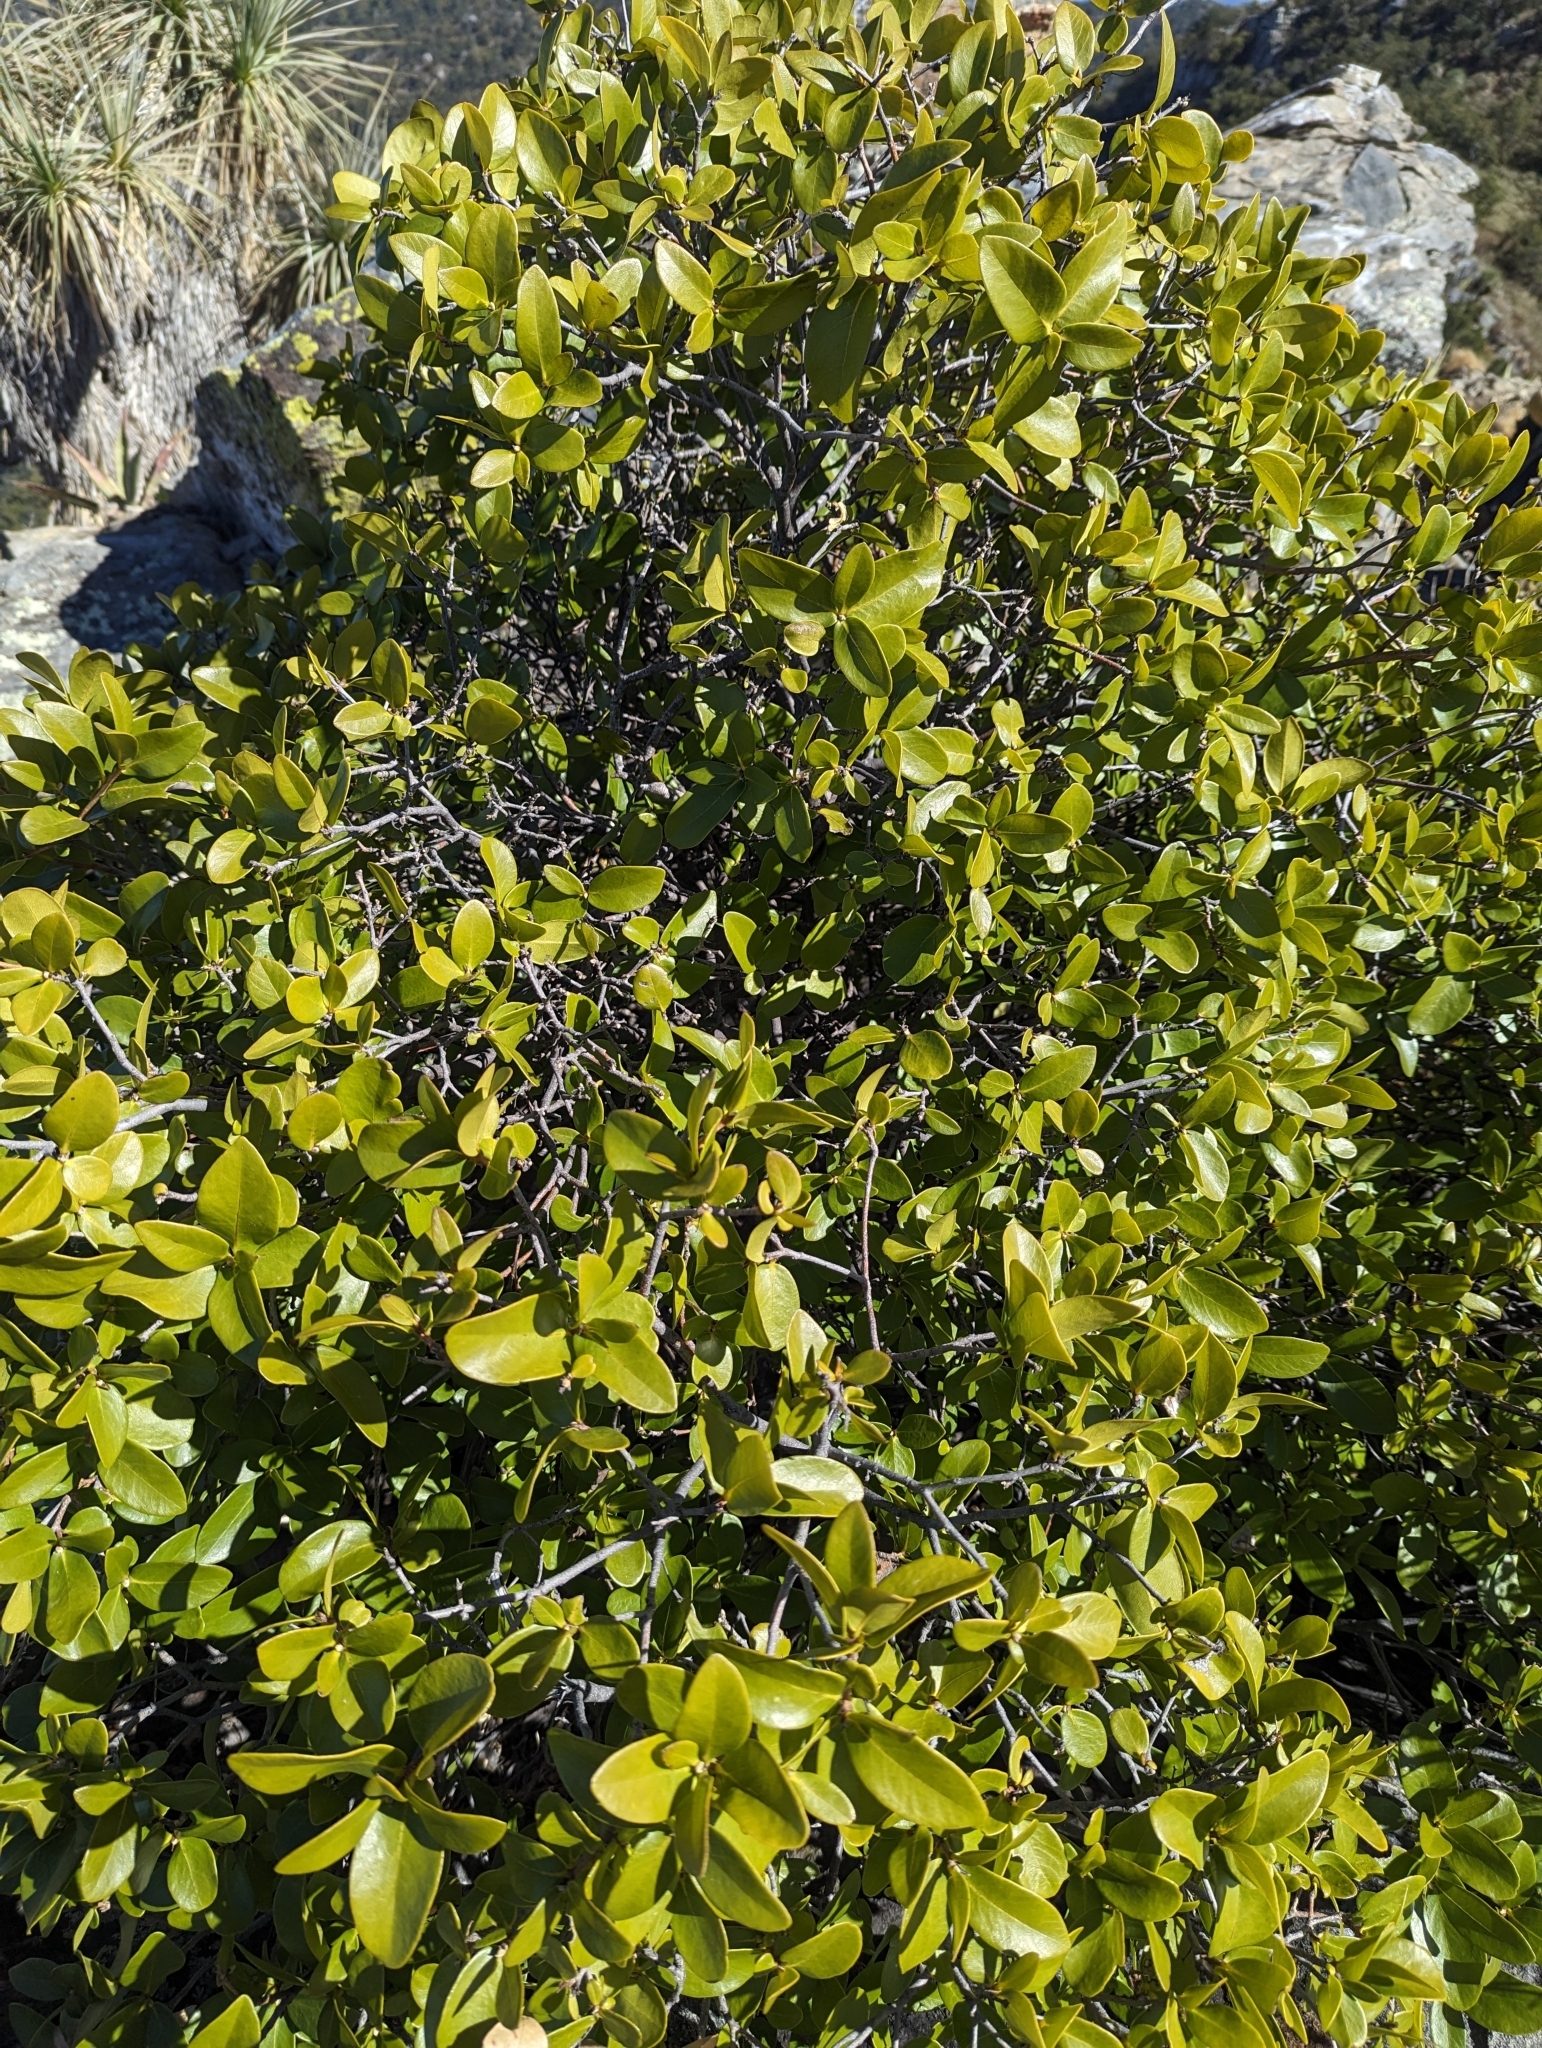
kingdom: Plantae
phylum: Tracheophyta
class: Magnoliopsida
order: Malvales
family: Thymelaeaceae
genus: Daphnopsis
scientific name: Daphnopsis lagunae
